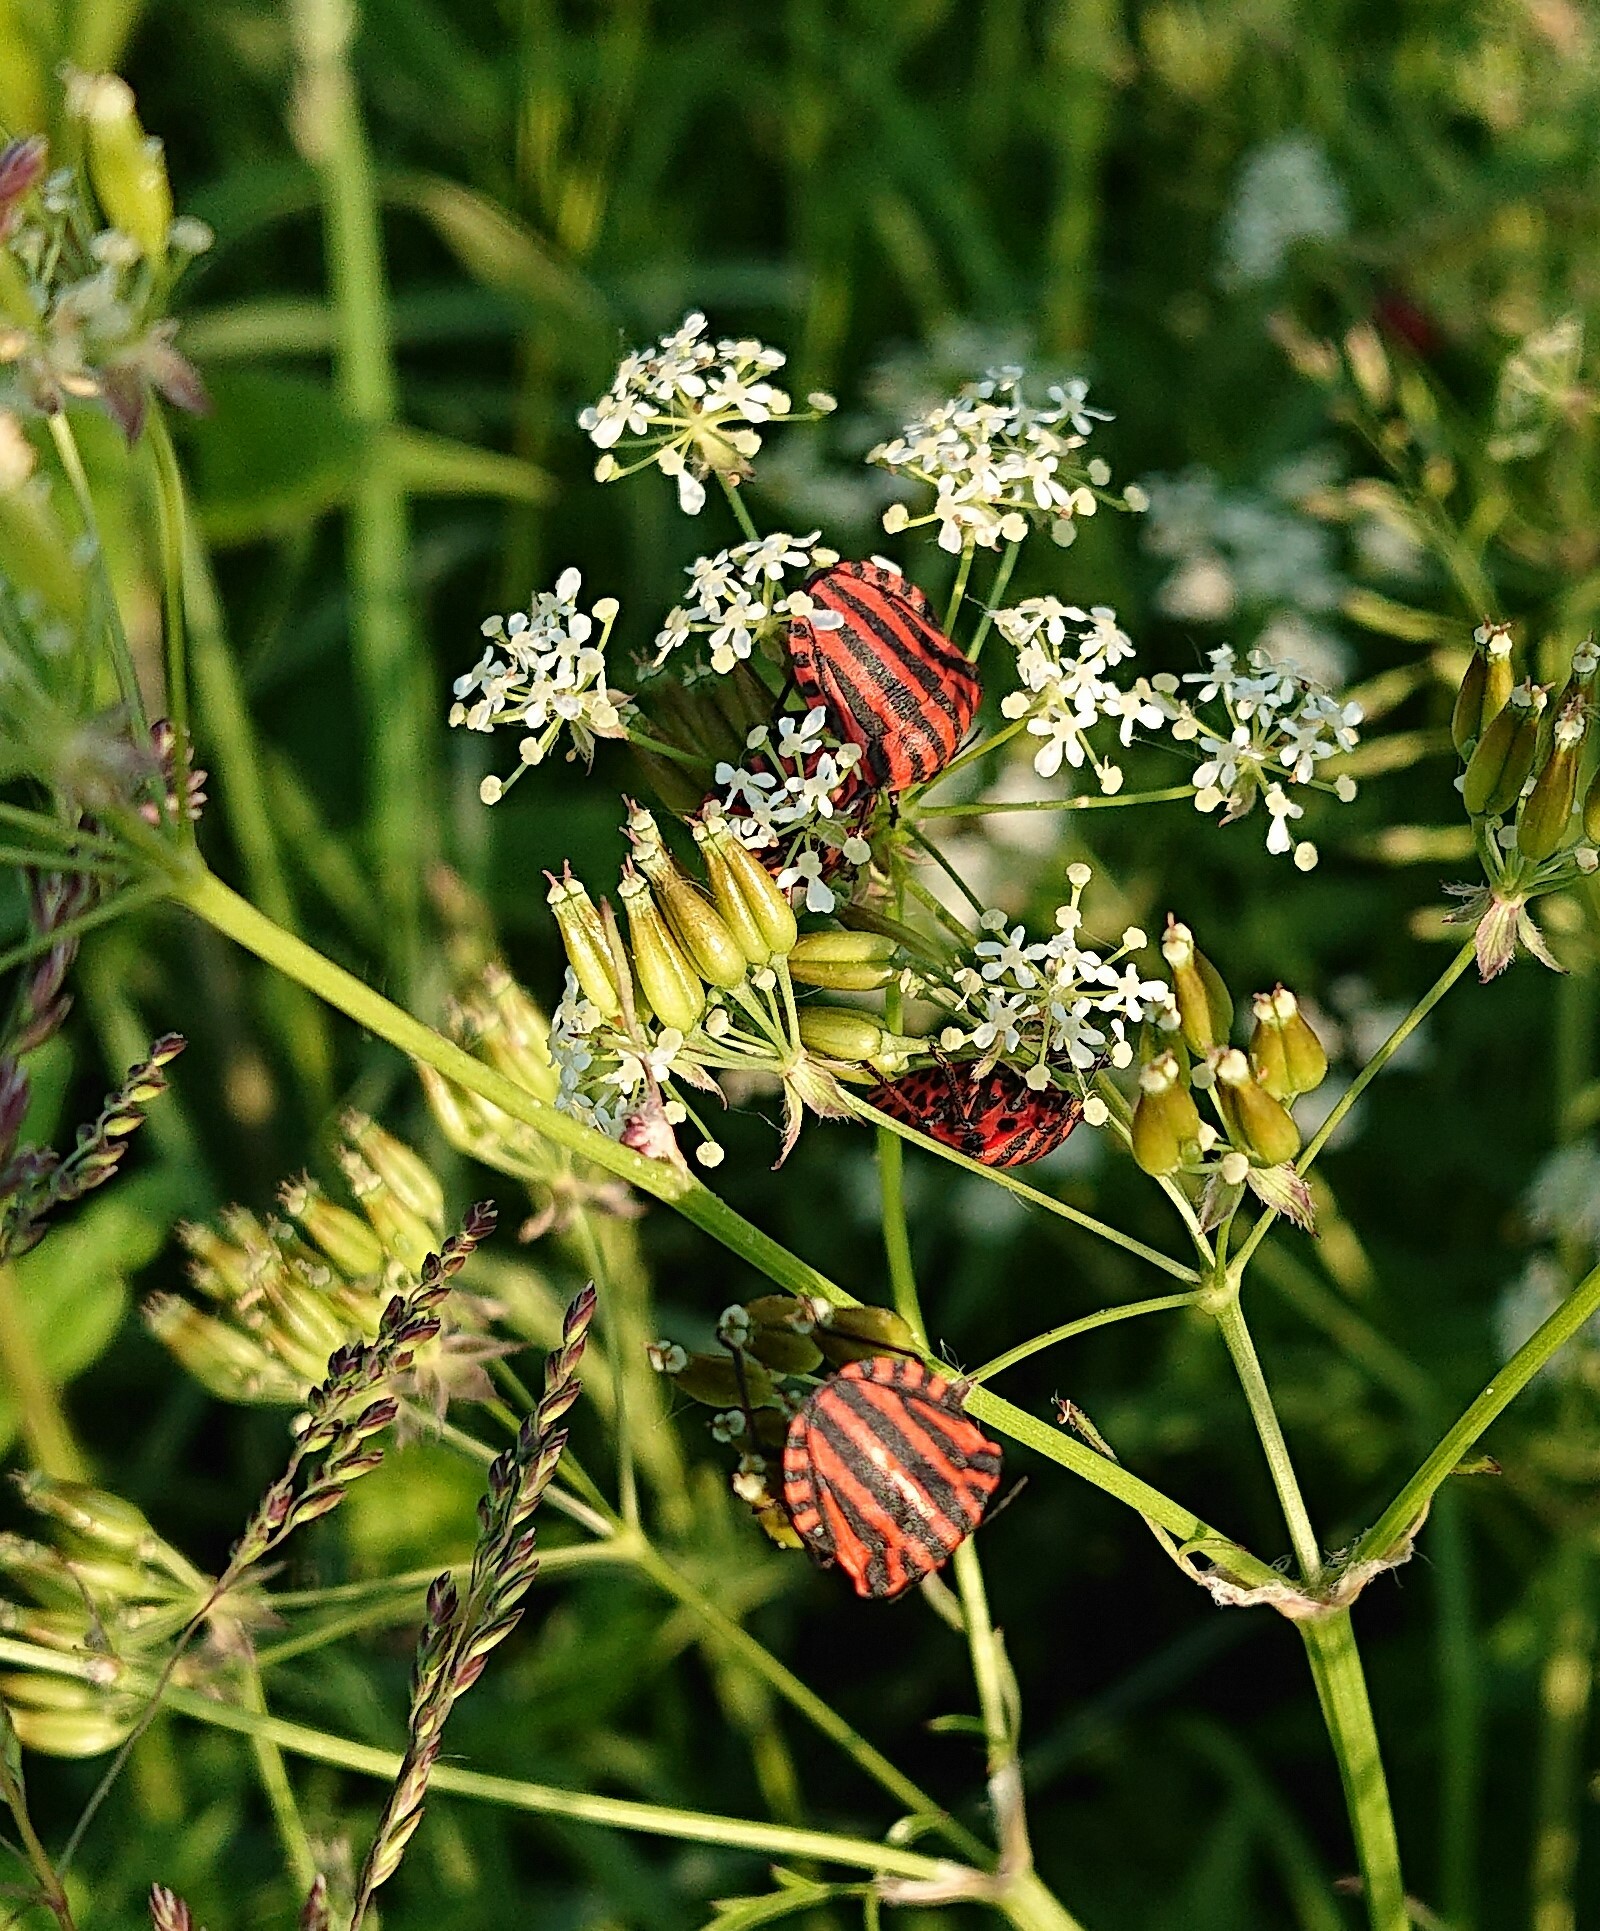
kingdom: Animalia
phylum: Arthropoda
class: Insecta
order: Hemiptera
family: Pentatomidae
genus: Graphosoma
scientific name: Graphosoma italicum
